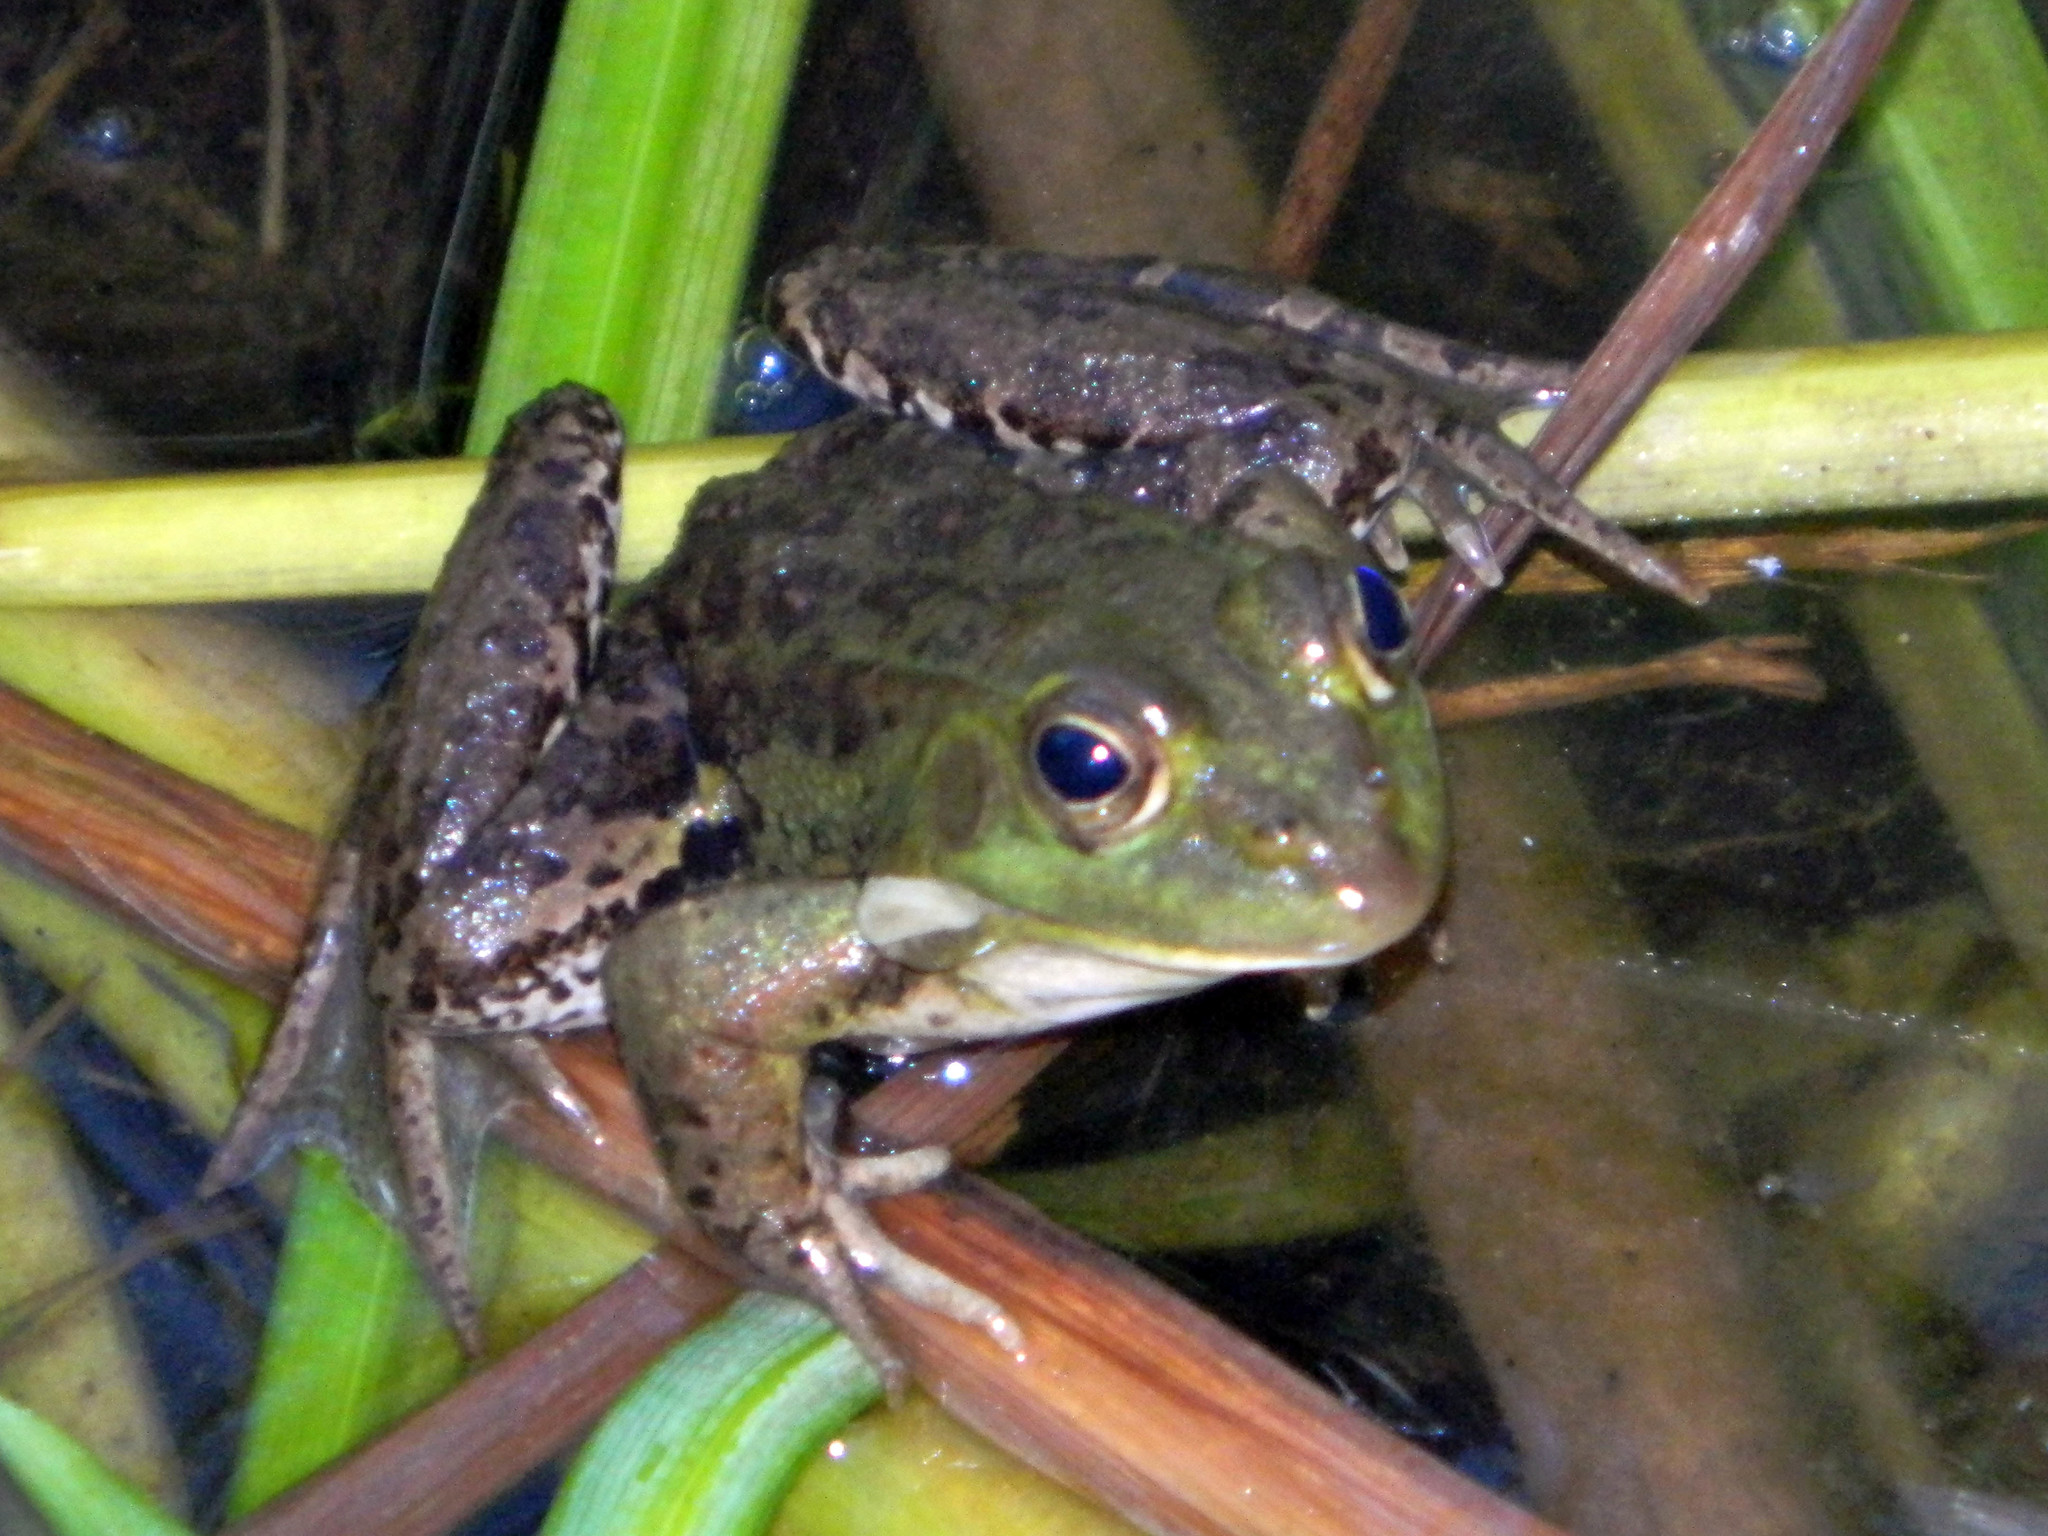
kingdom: Animalia
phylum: Chordata
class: Amphibia
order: Anura
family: Ranidae
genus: Pelophylax
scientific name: Pelophylax bergeri
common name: Italian pool frog
